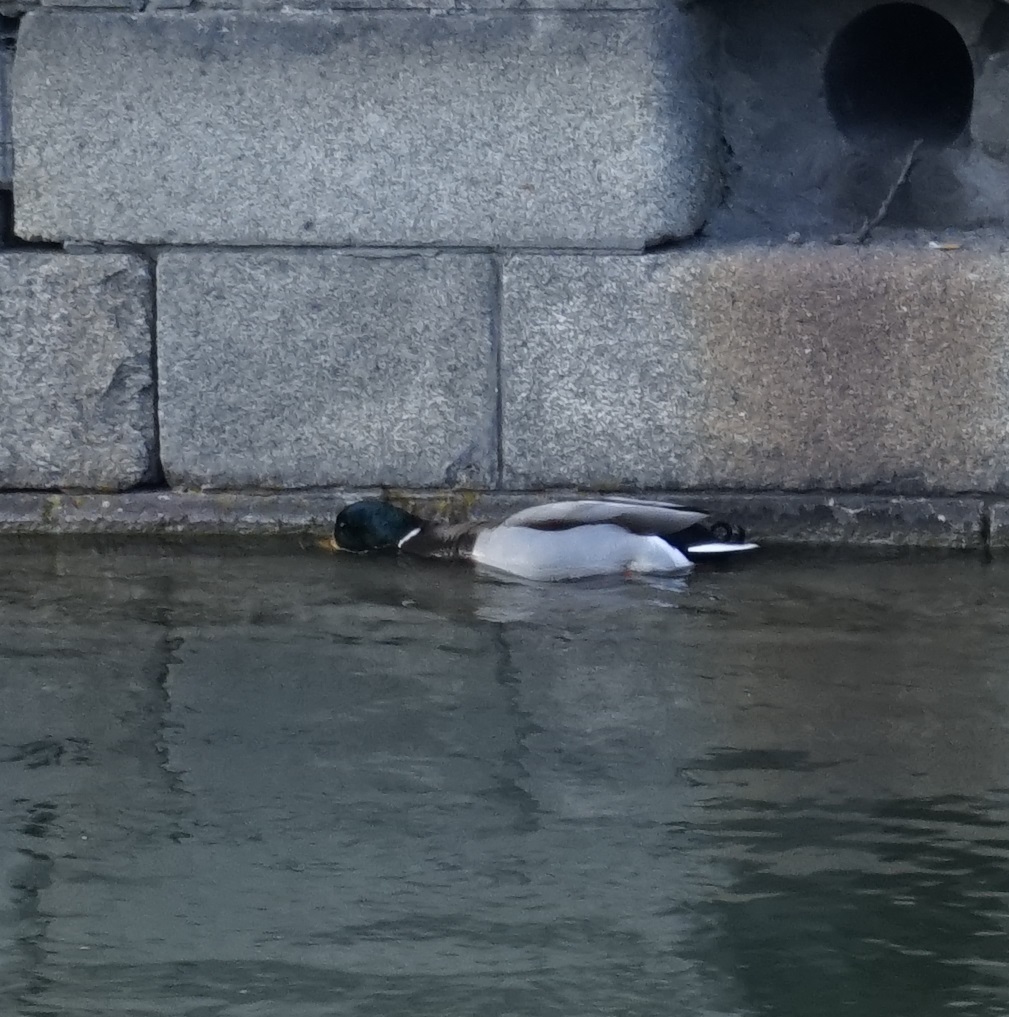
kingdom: Animalia
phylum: Chordata
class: Aves
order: Anseriformes
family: Anatidae
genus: Anas
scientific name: Anas platyrhynchos
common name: Mallard
